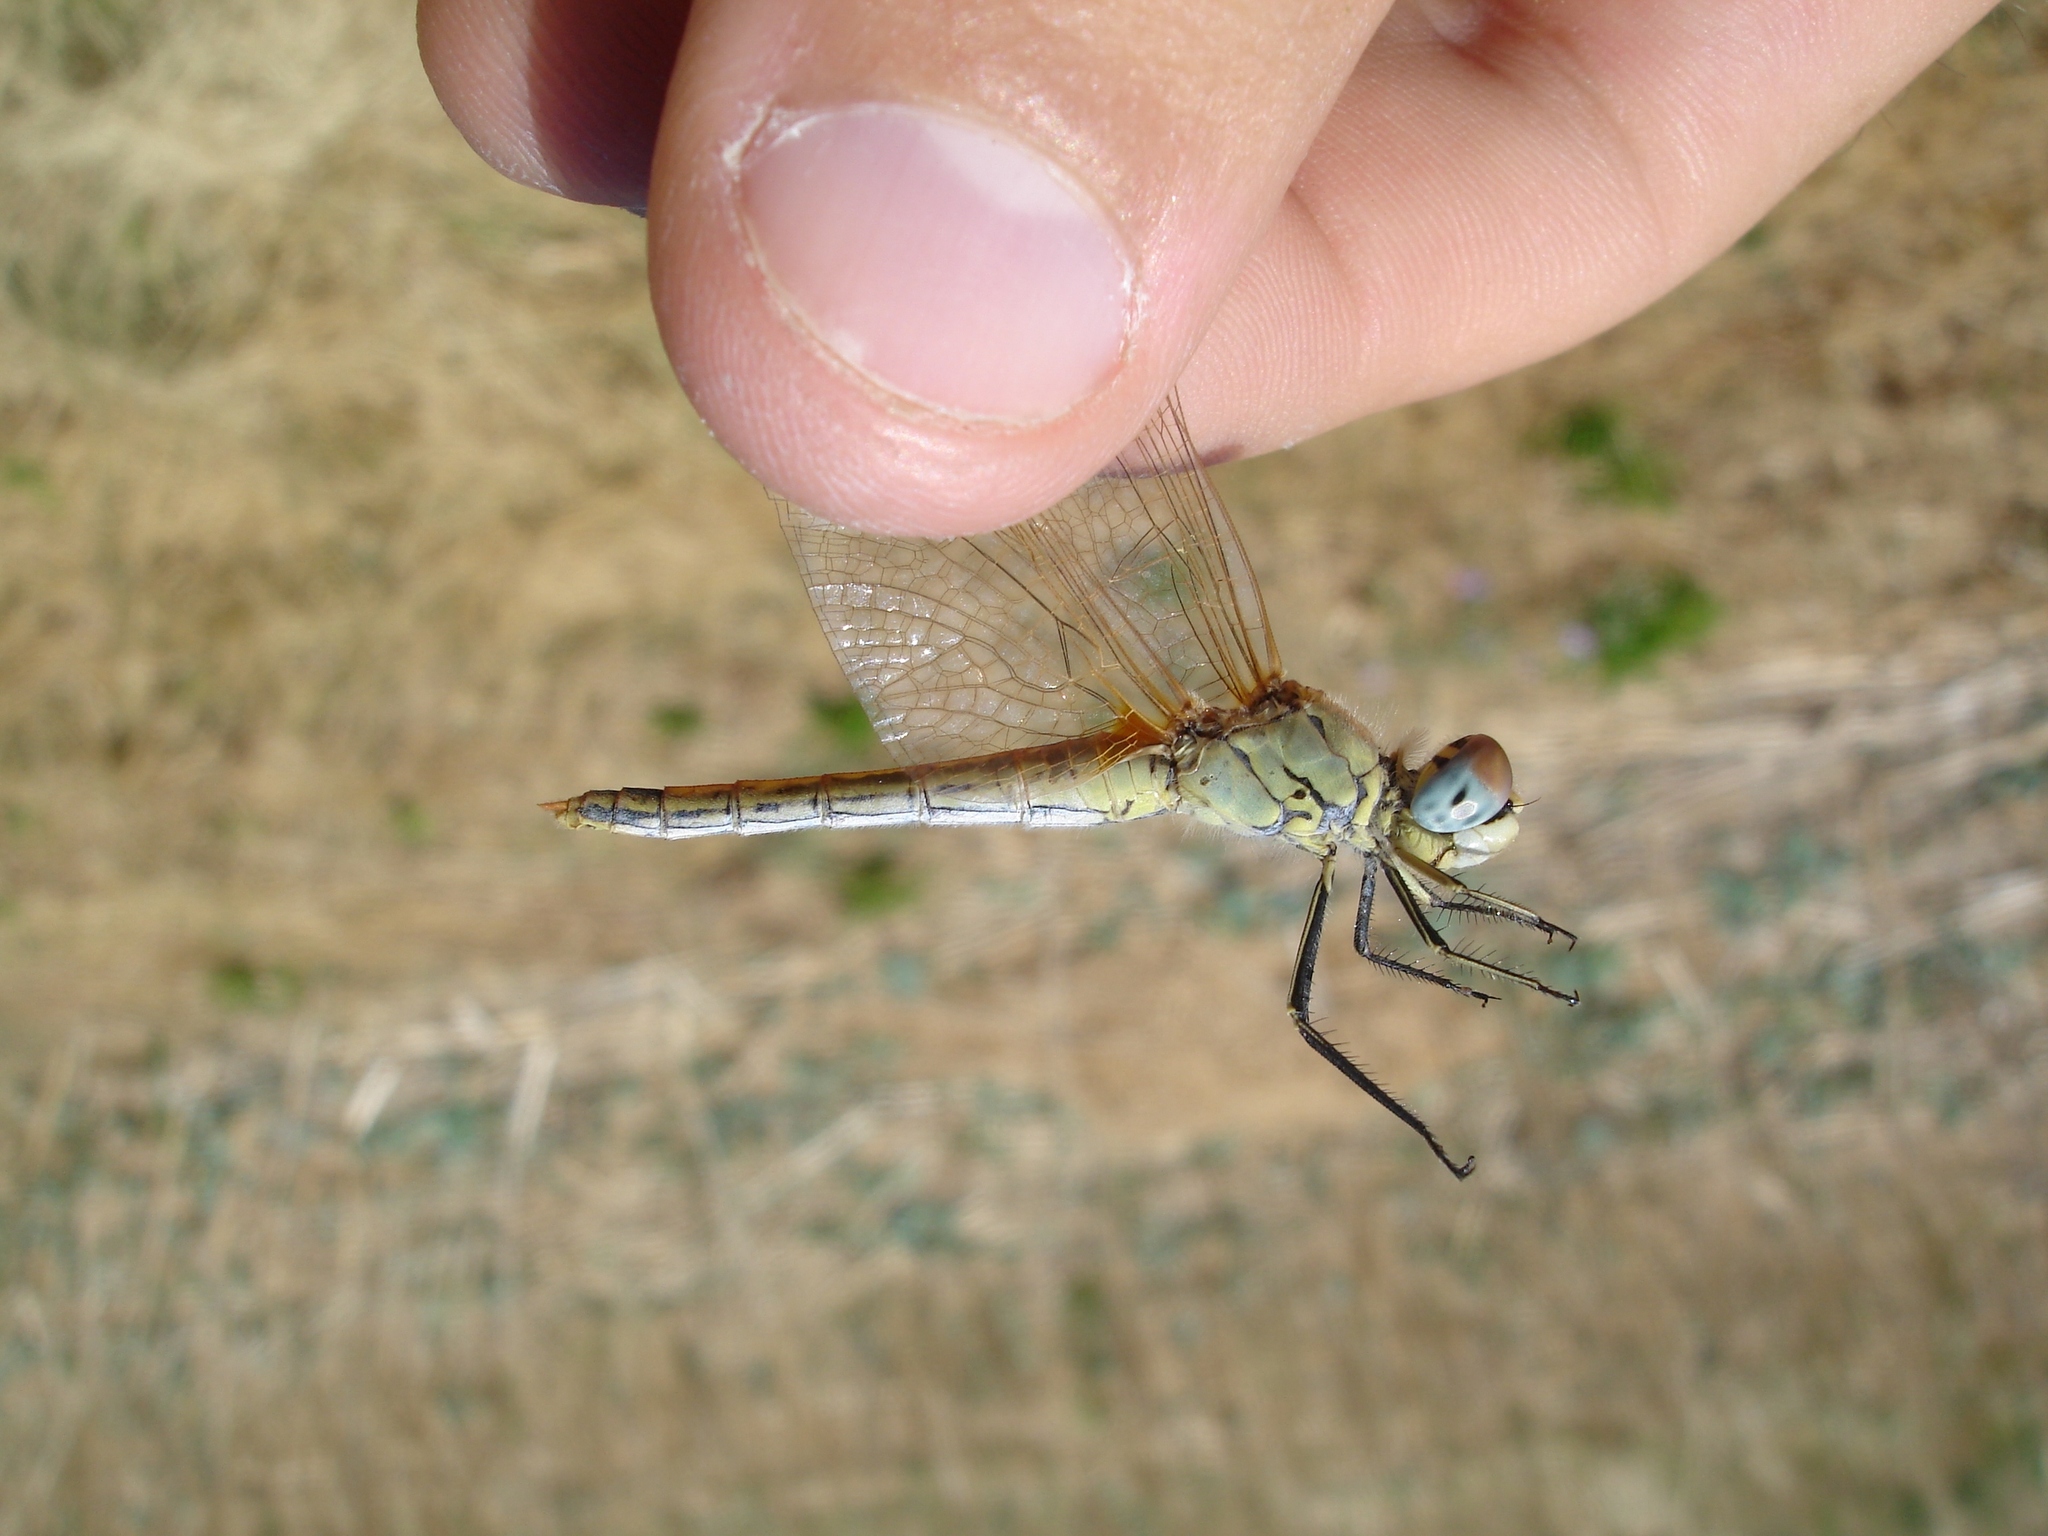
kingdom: Animalia
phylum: Arthropoda
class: Insecta
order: Odonata
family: Libellulidae
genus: Sympetrum
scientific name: Sympetrum fonscolombii
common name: Red-veined darter
